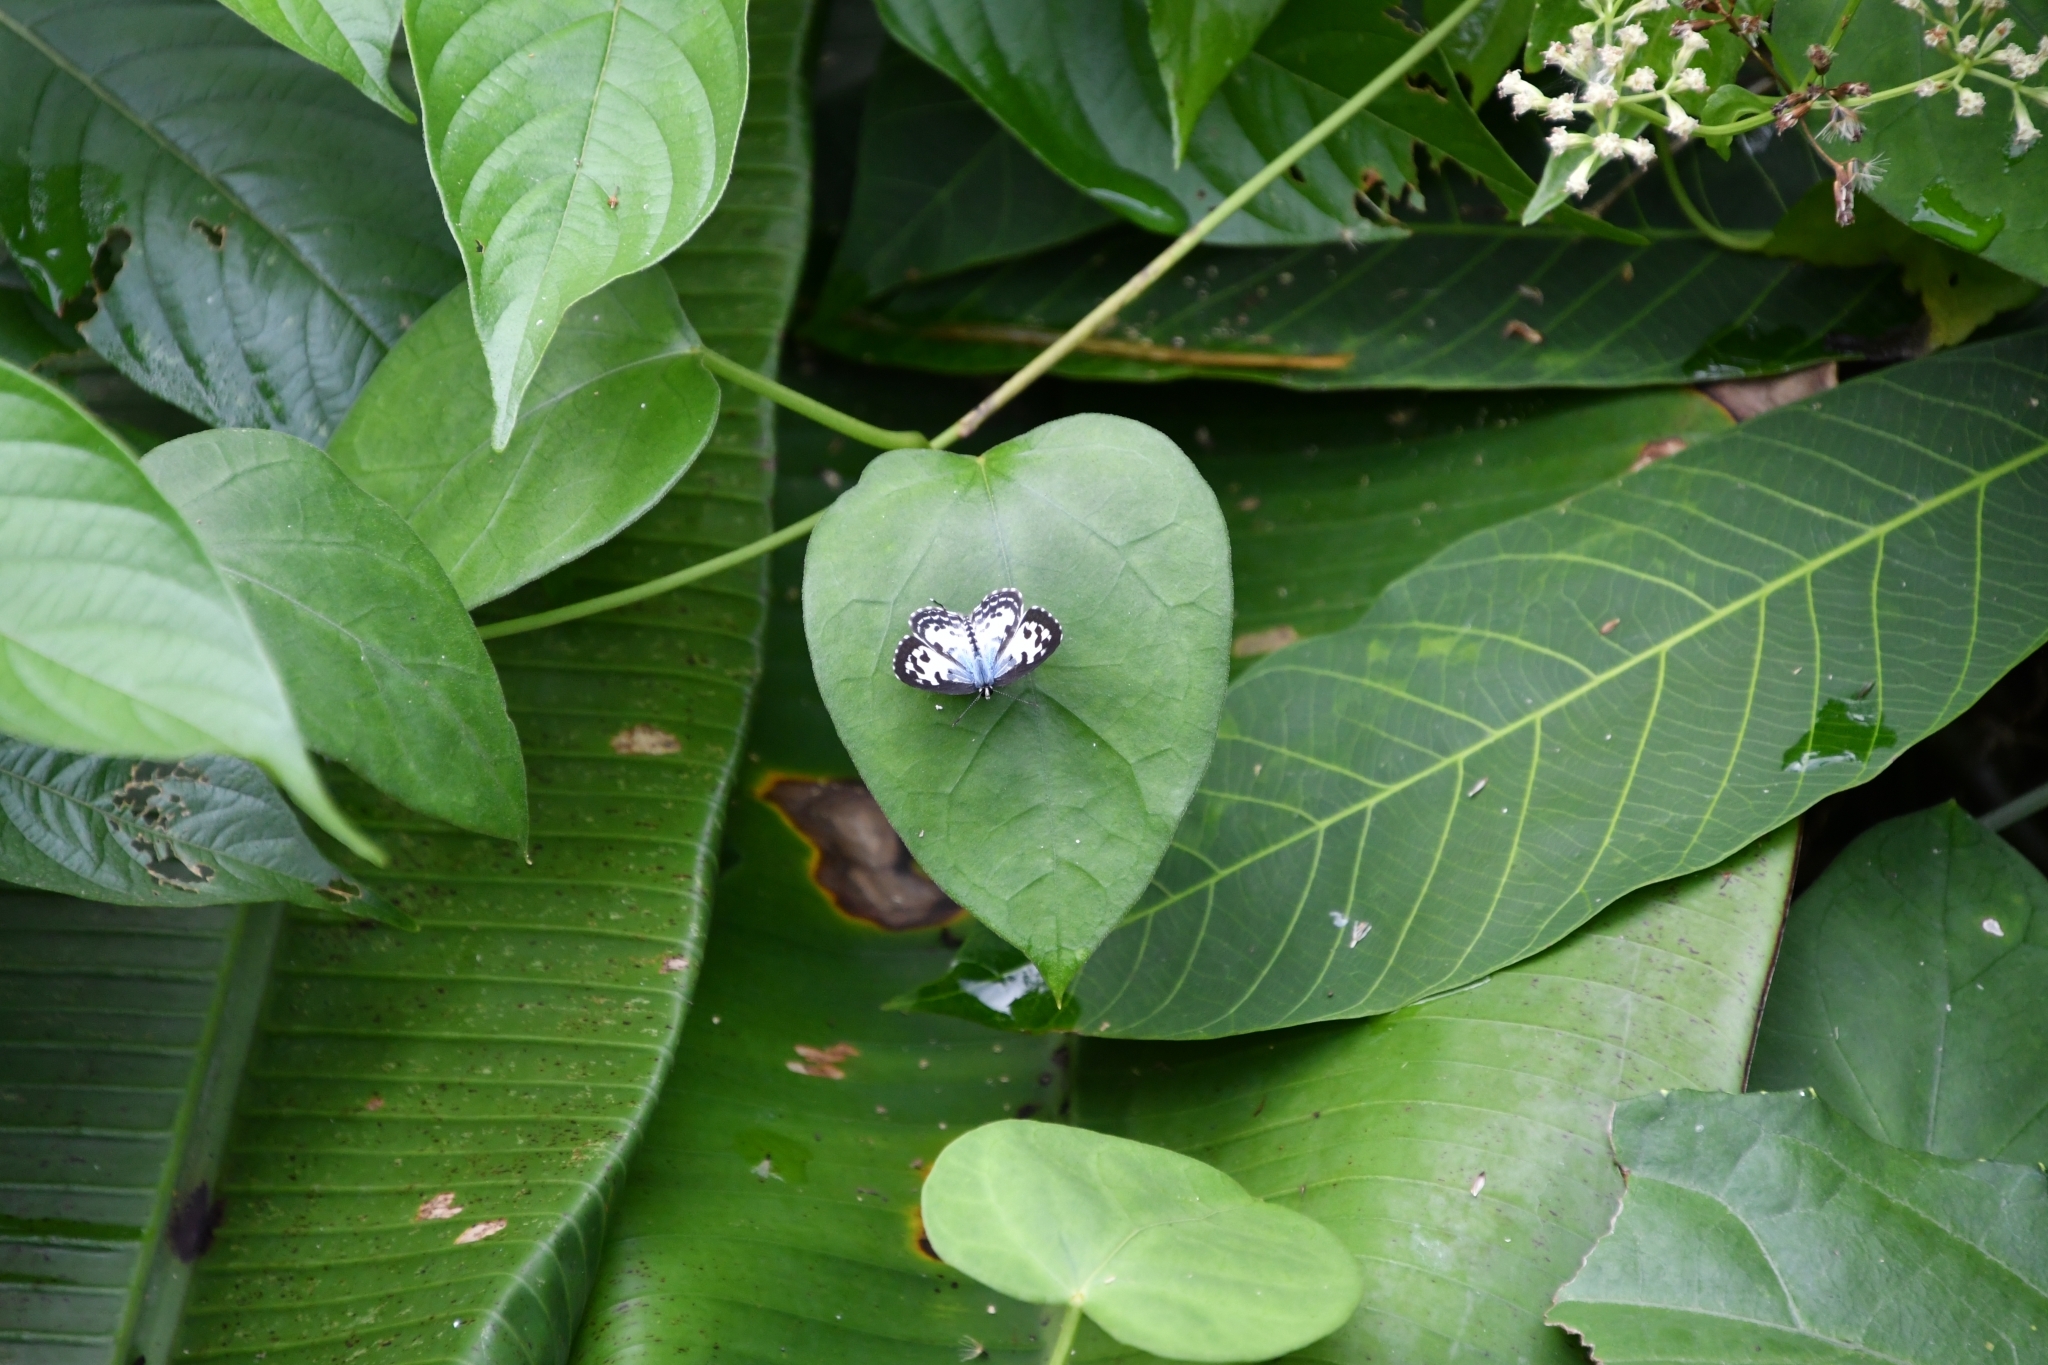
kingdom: Animalia
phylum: Arthropoda
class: Insecta
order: Lepidoptera
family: Lycaenidae
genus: Castalius
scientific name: Castalius rosimon
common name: Common pierrot
